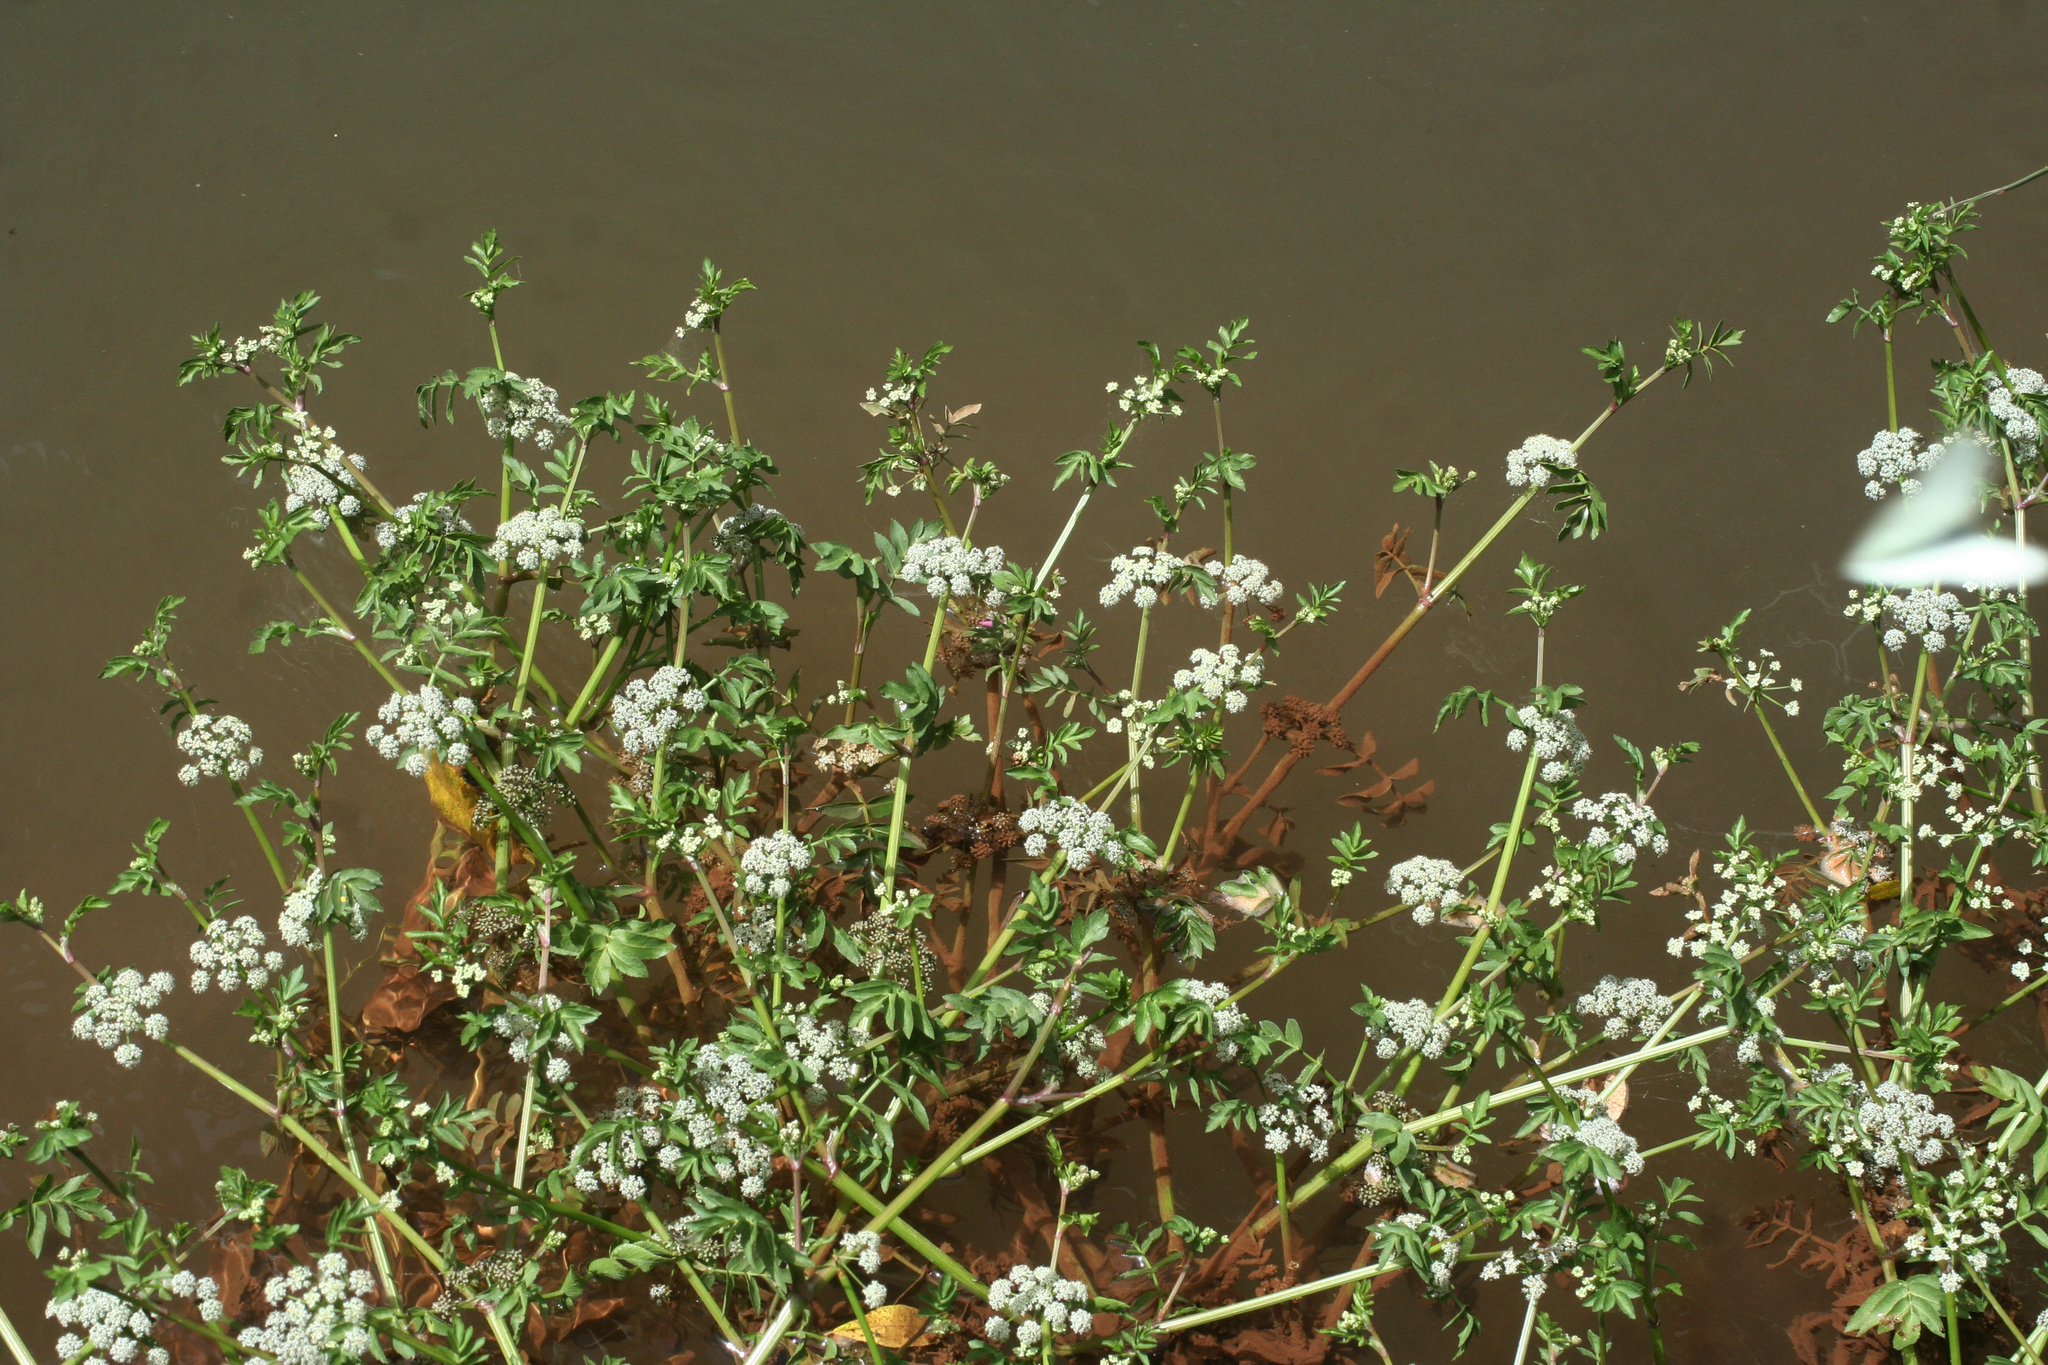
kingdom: Plantae
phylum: Tracheophyta
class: Magnoliopsida
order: Apiales
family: Apiaceae
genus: Helosciadium
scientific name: Helosciadium nodiflorum
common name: Fool's-watercress
